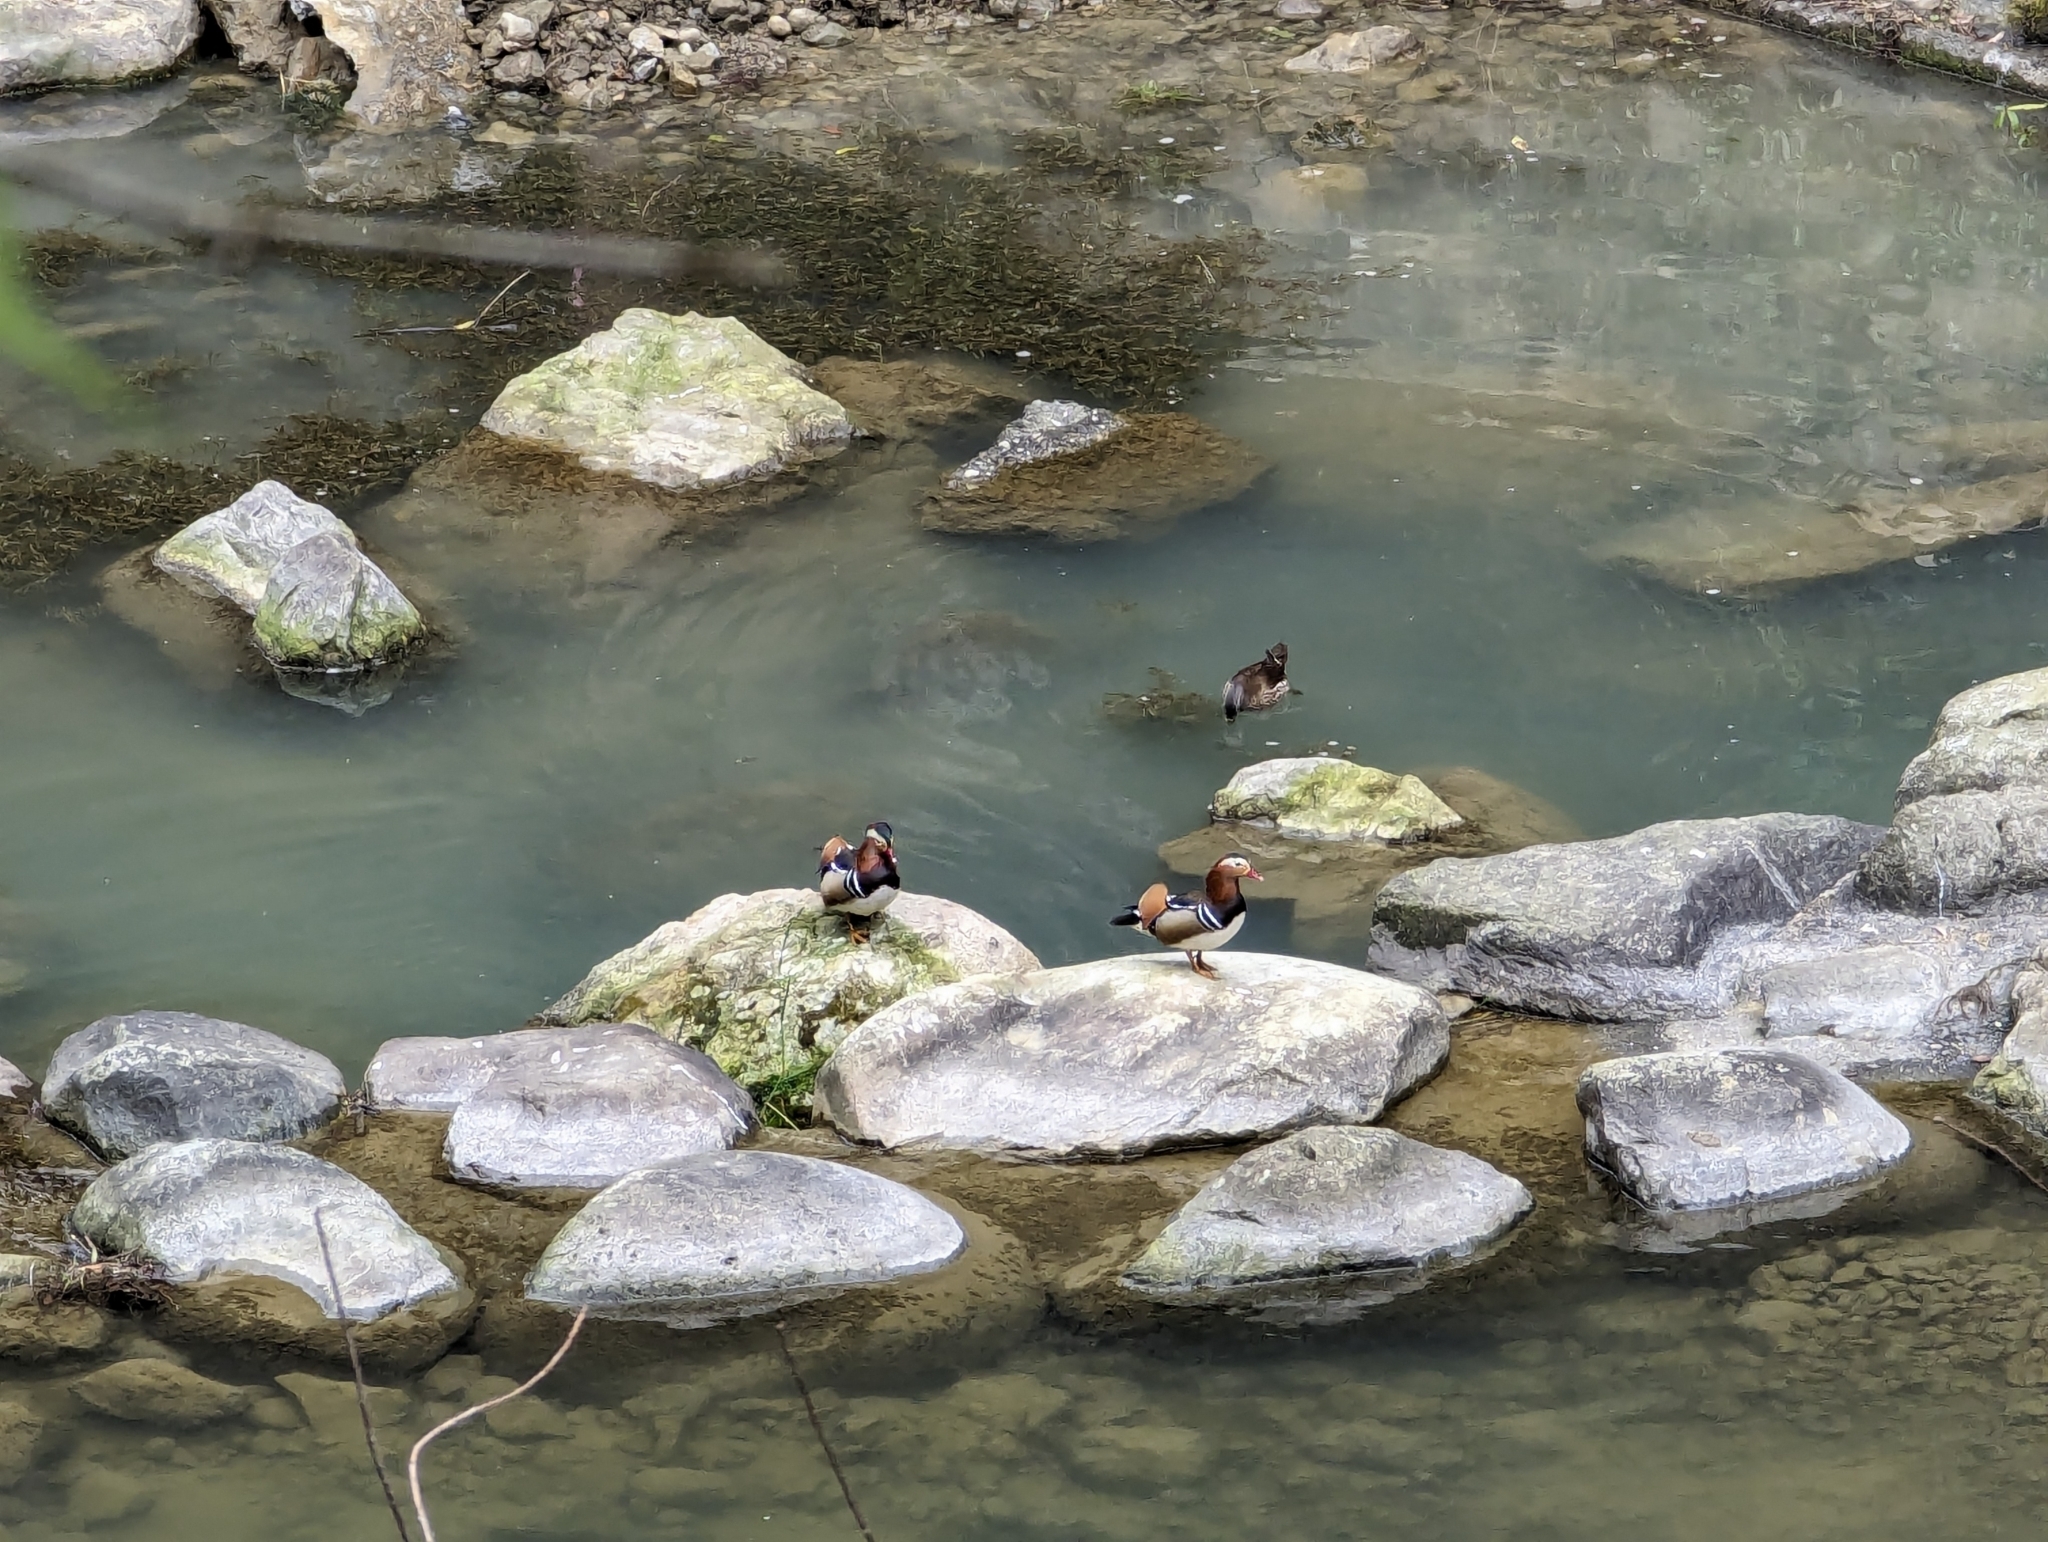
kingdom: Animalia
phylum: Chordata
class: Aves
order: Anseriformes
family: Anatidae
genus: Aix
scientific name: Aix galericulata
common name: Mandarin duck
